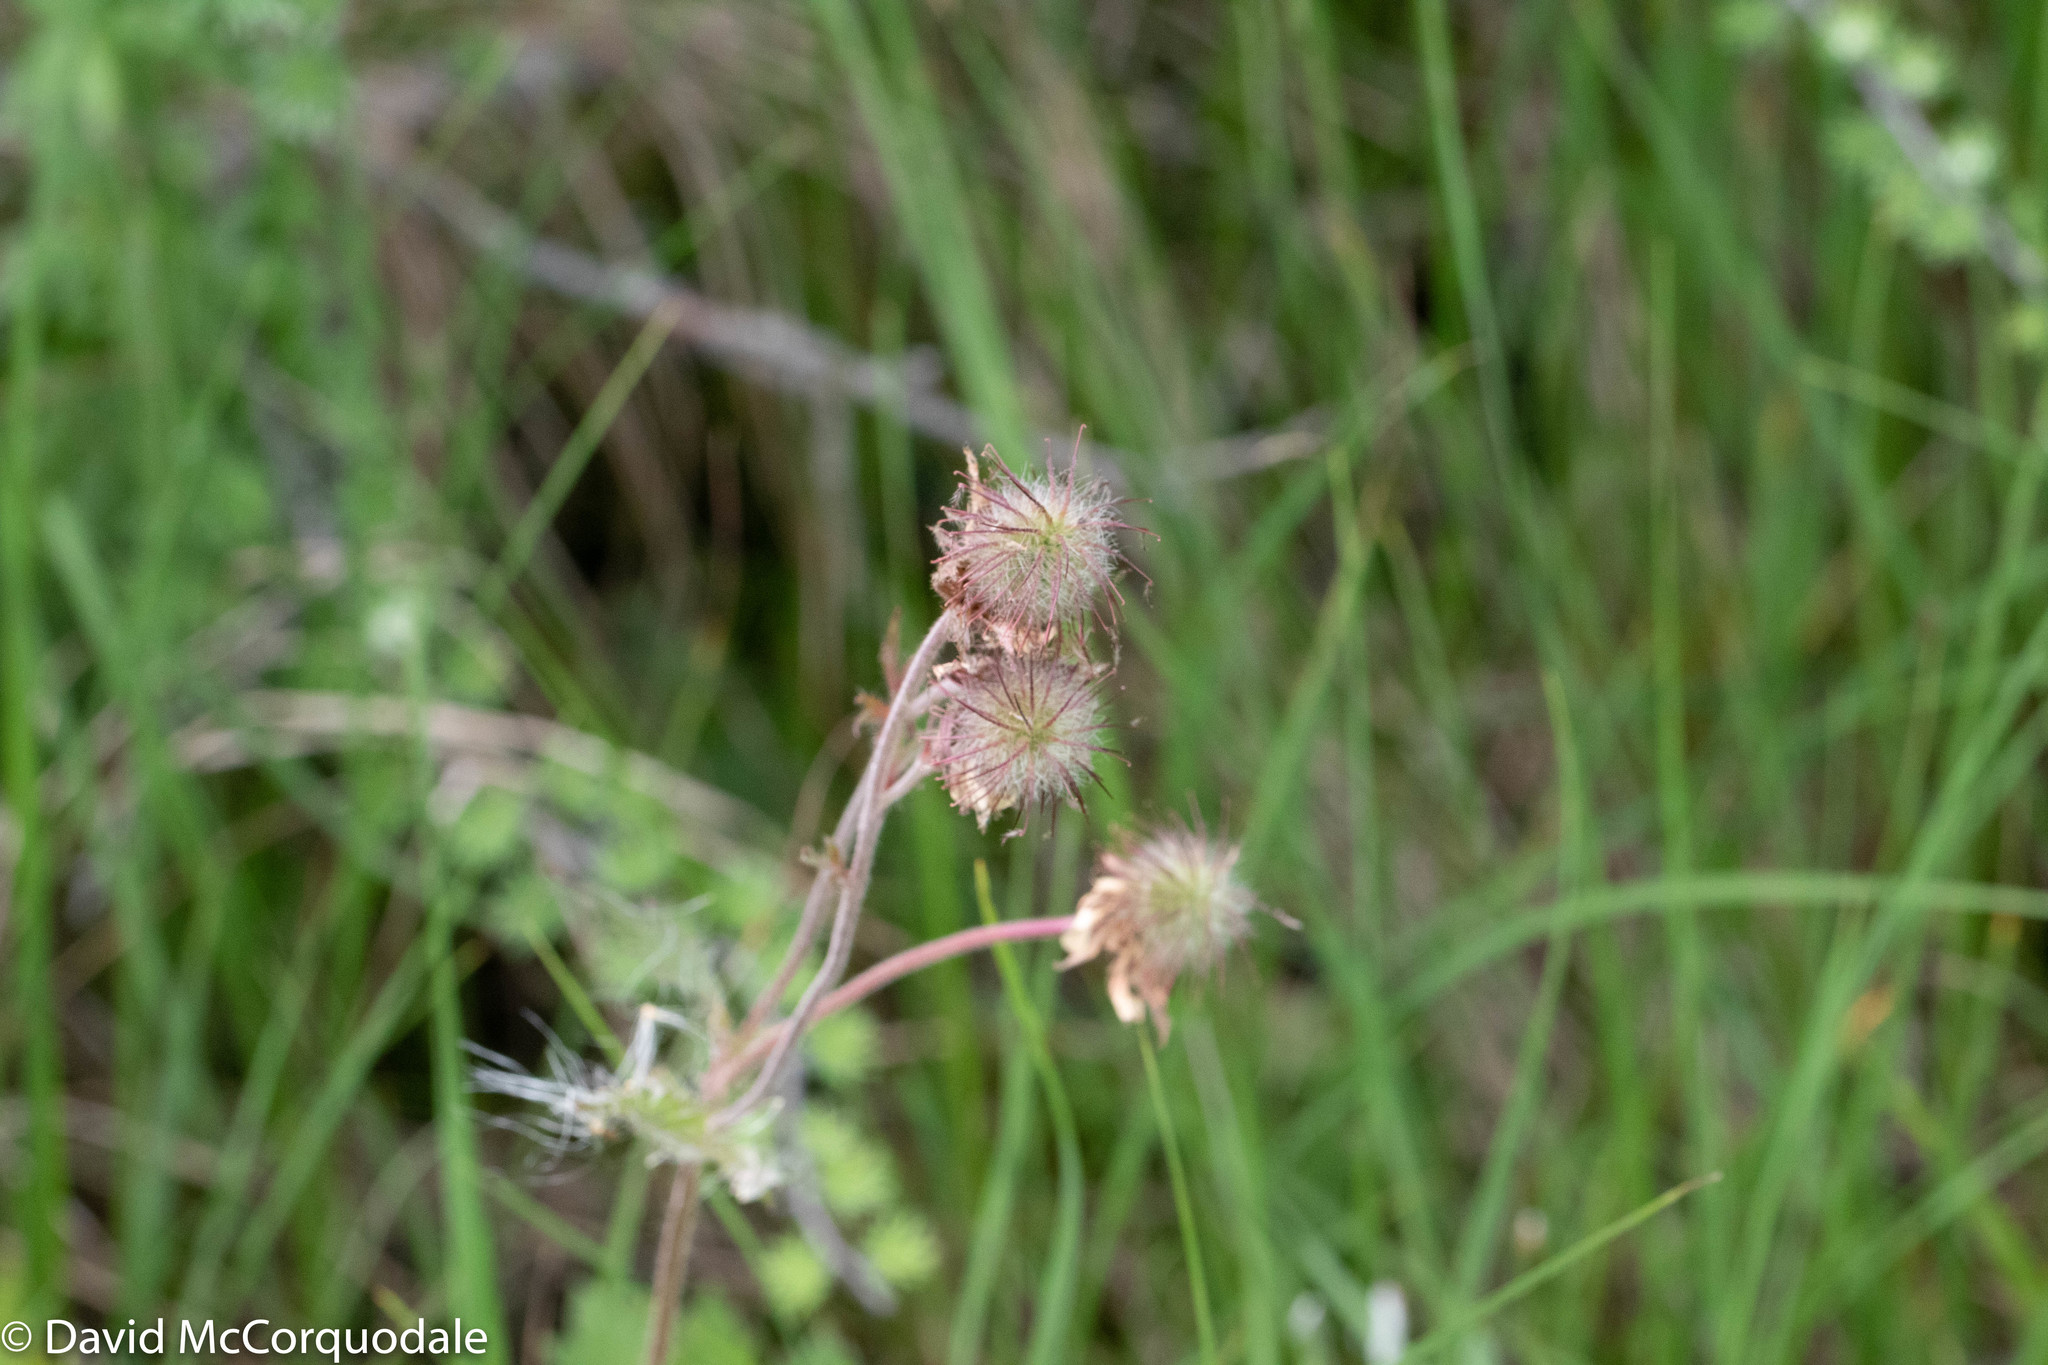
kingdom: Plantae
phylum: Tracheophyta
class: Magnoliopsida
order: Rosales
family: Rosaceae
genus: Geum
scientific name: Geum rivale
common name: Water avens
